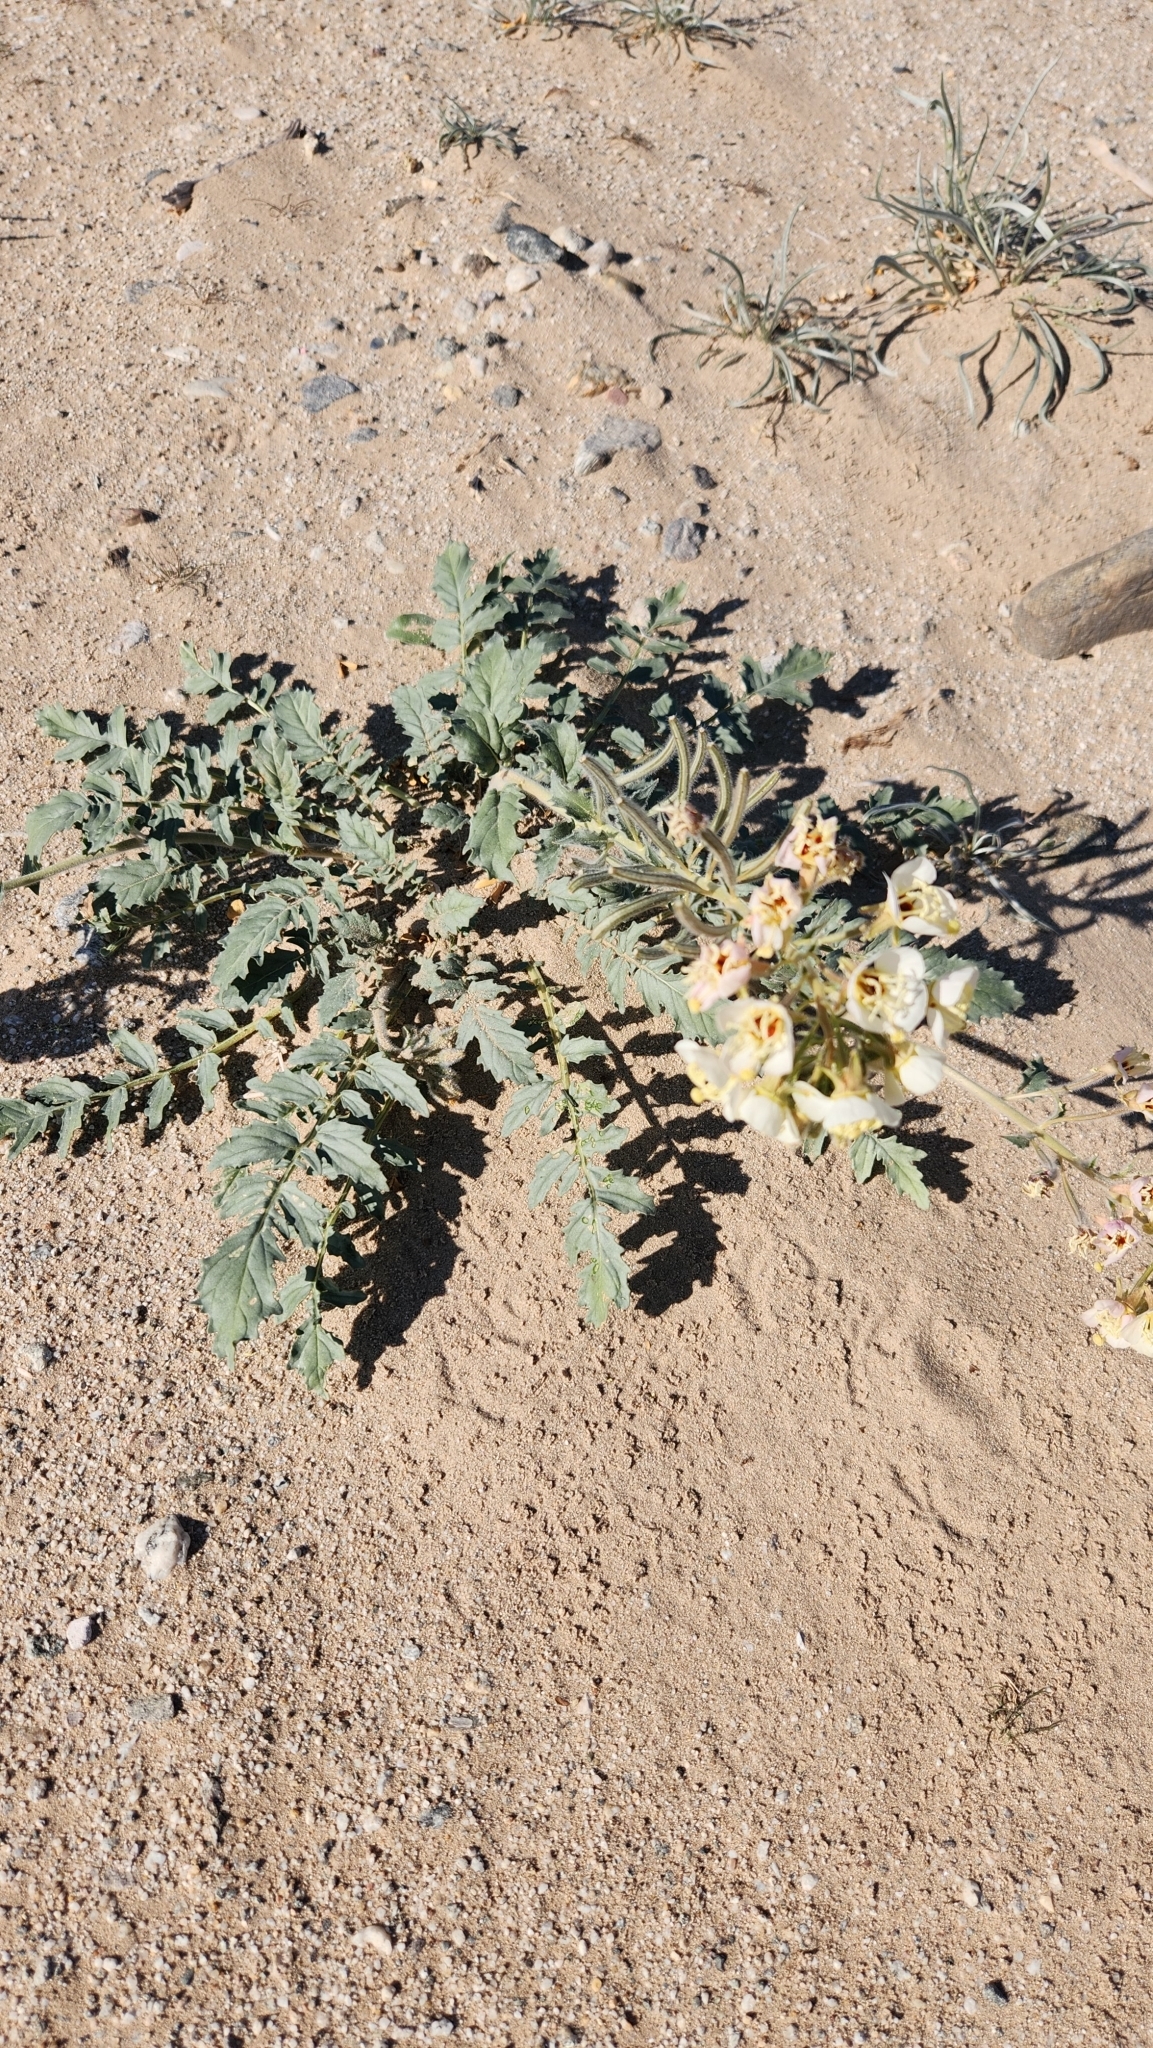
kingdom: Plantae
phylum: Tracheophyta
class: Magnoliopsida
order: Myrtales
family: Onagraceae
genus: Chylismia
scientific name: Chylismia claviformis
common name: Browneyes
